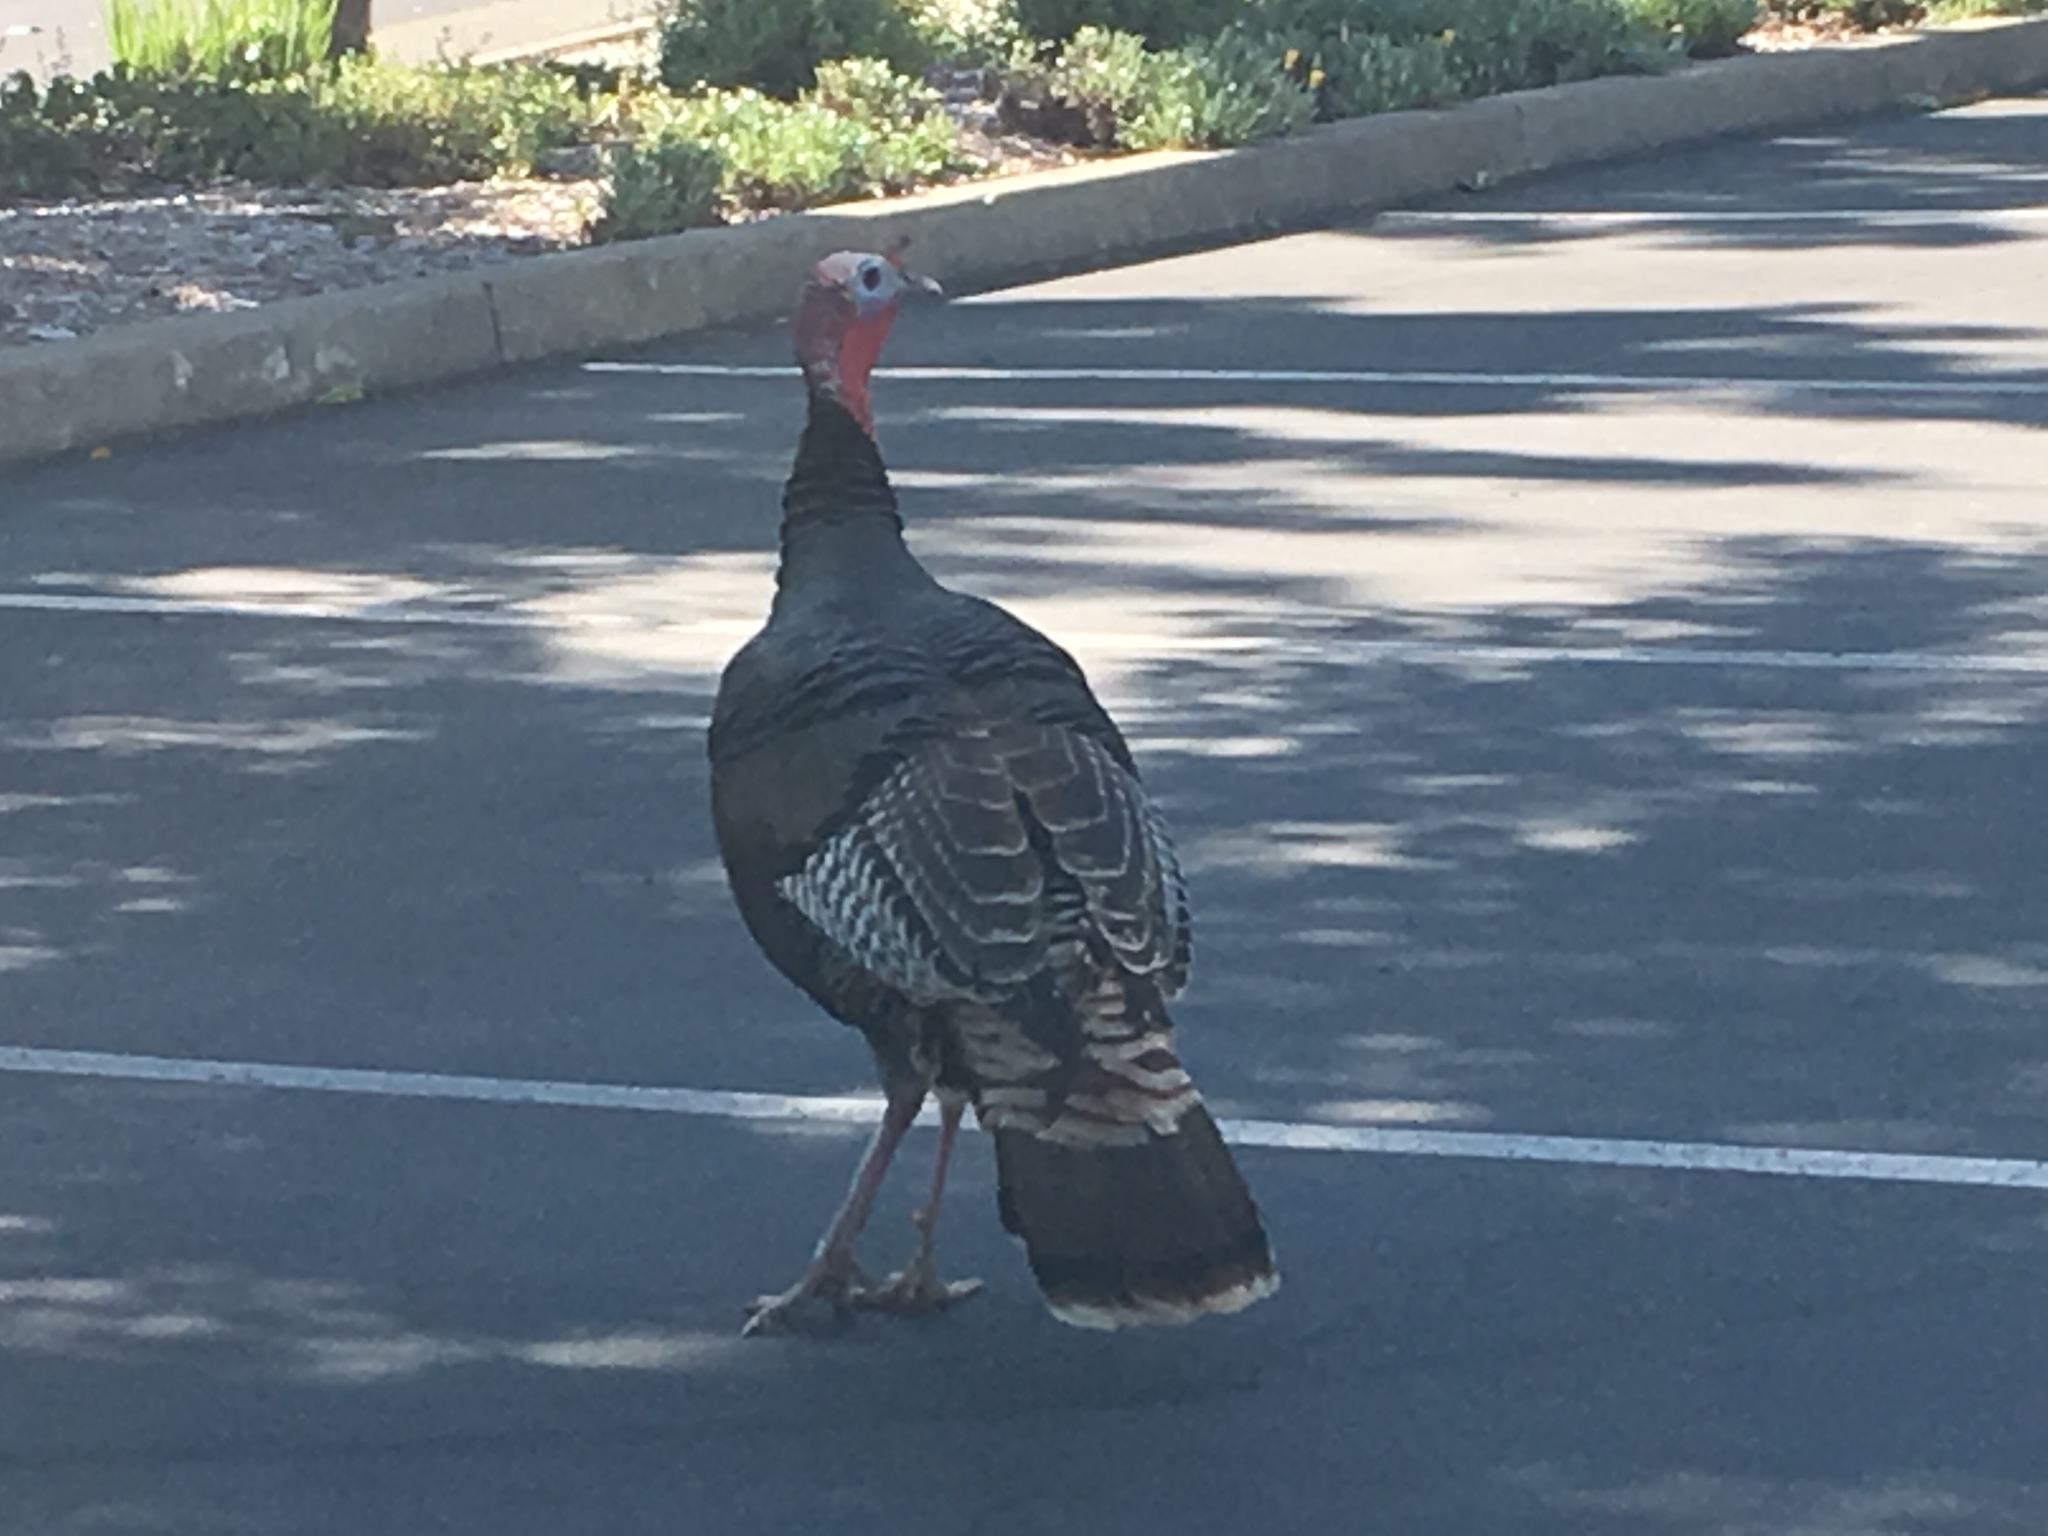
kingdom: Animalia
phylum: Chordata
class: Aves
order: Galliformes
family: Phasianidae
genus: Meleagris
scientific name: Meleagris gallopavo
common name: Wild turkey
